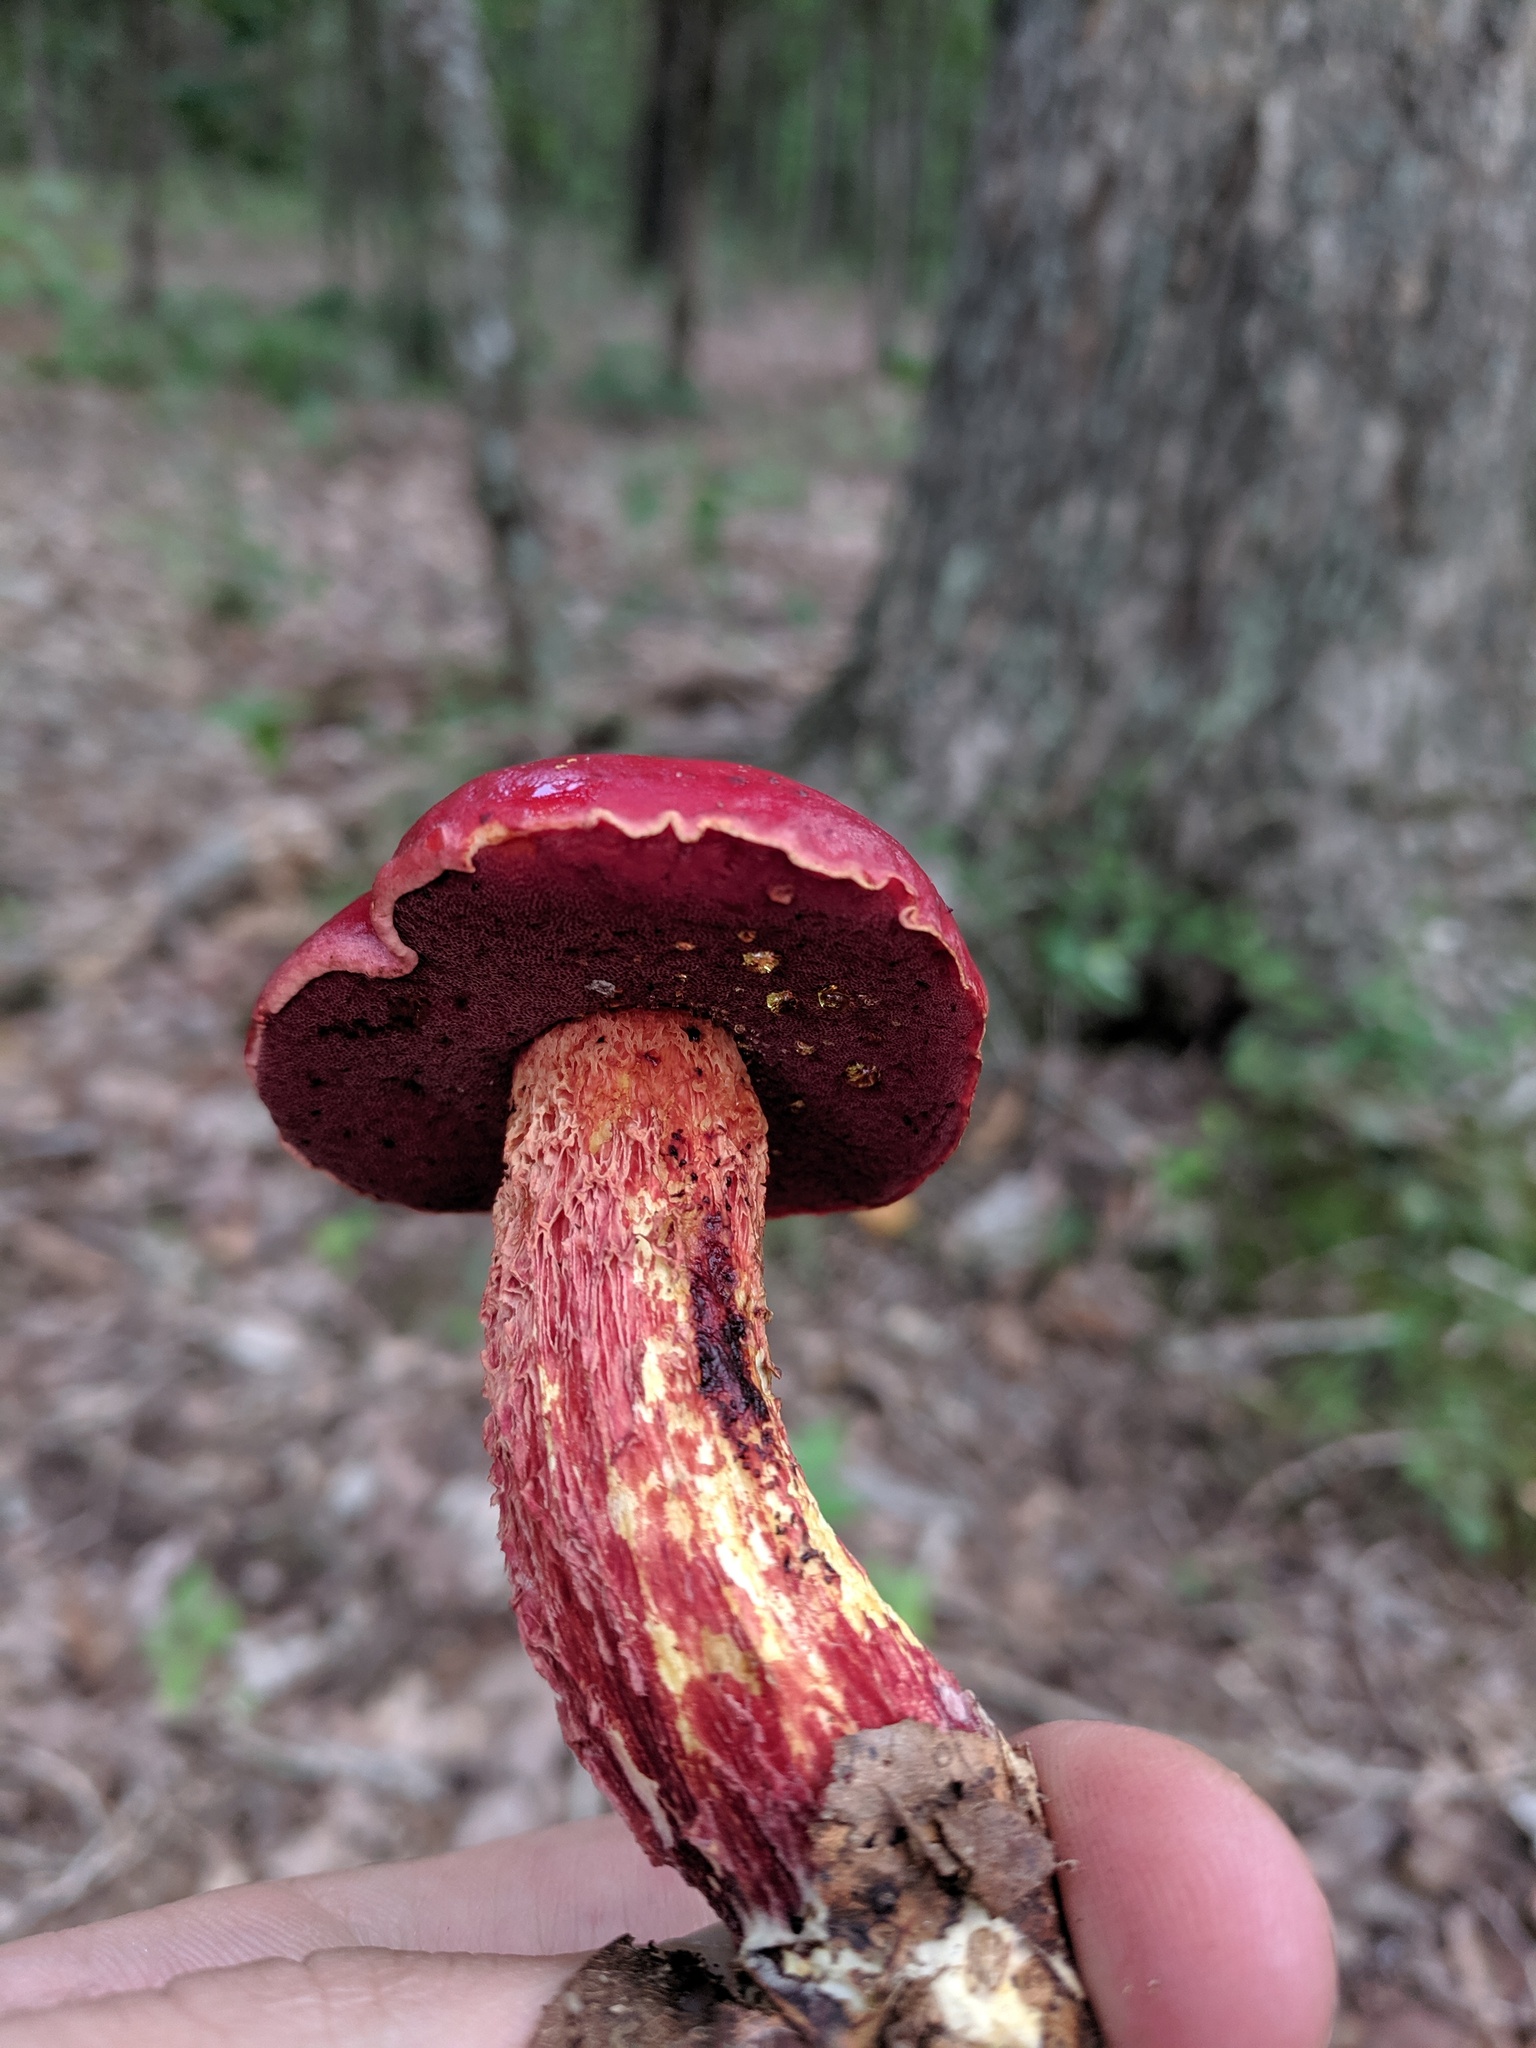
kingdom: Fungi
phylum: Basidiomycota
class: Agaricomycetes
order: Boletales
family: Boletaceae
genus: Butyriboletus
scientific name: Butyriboletus frostii
